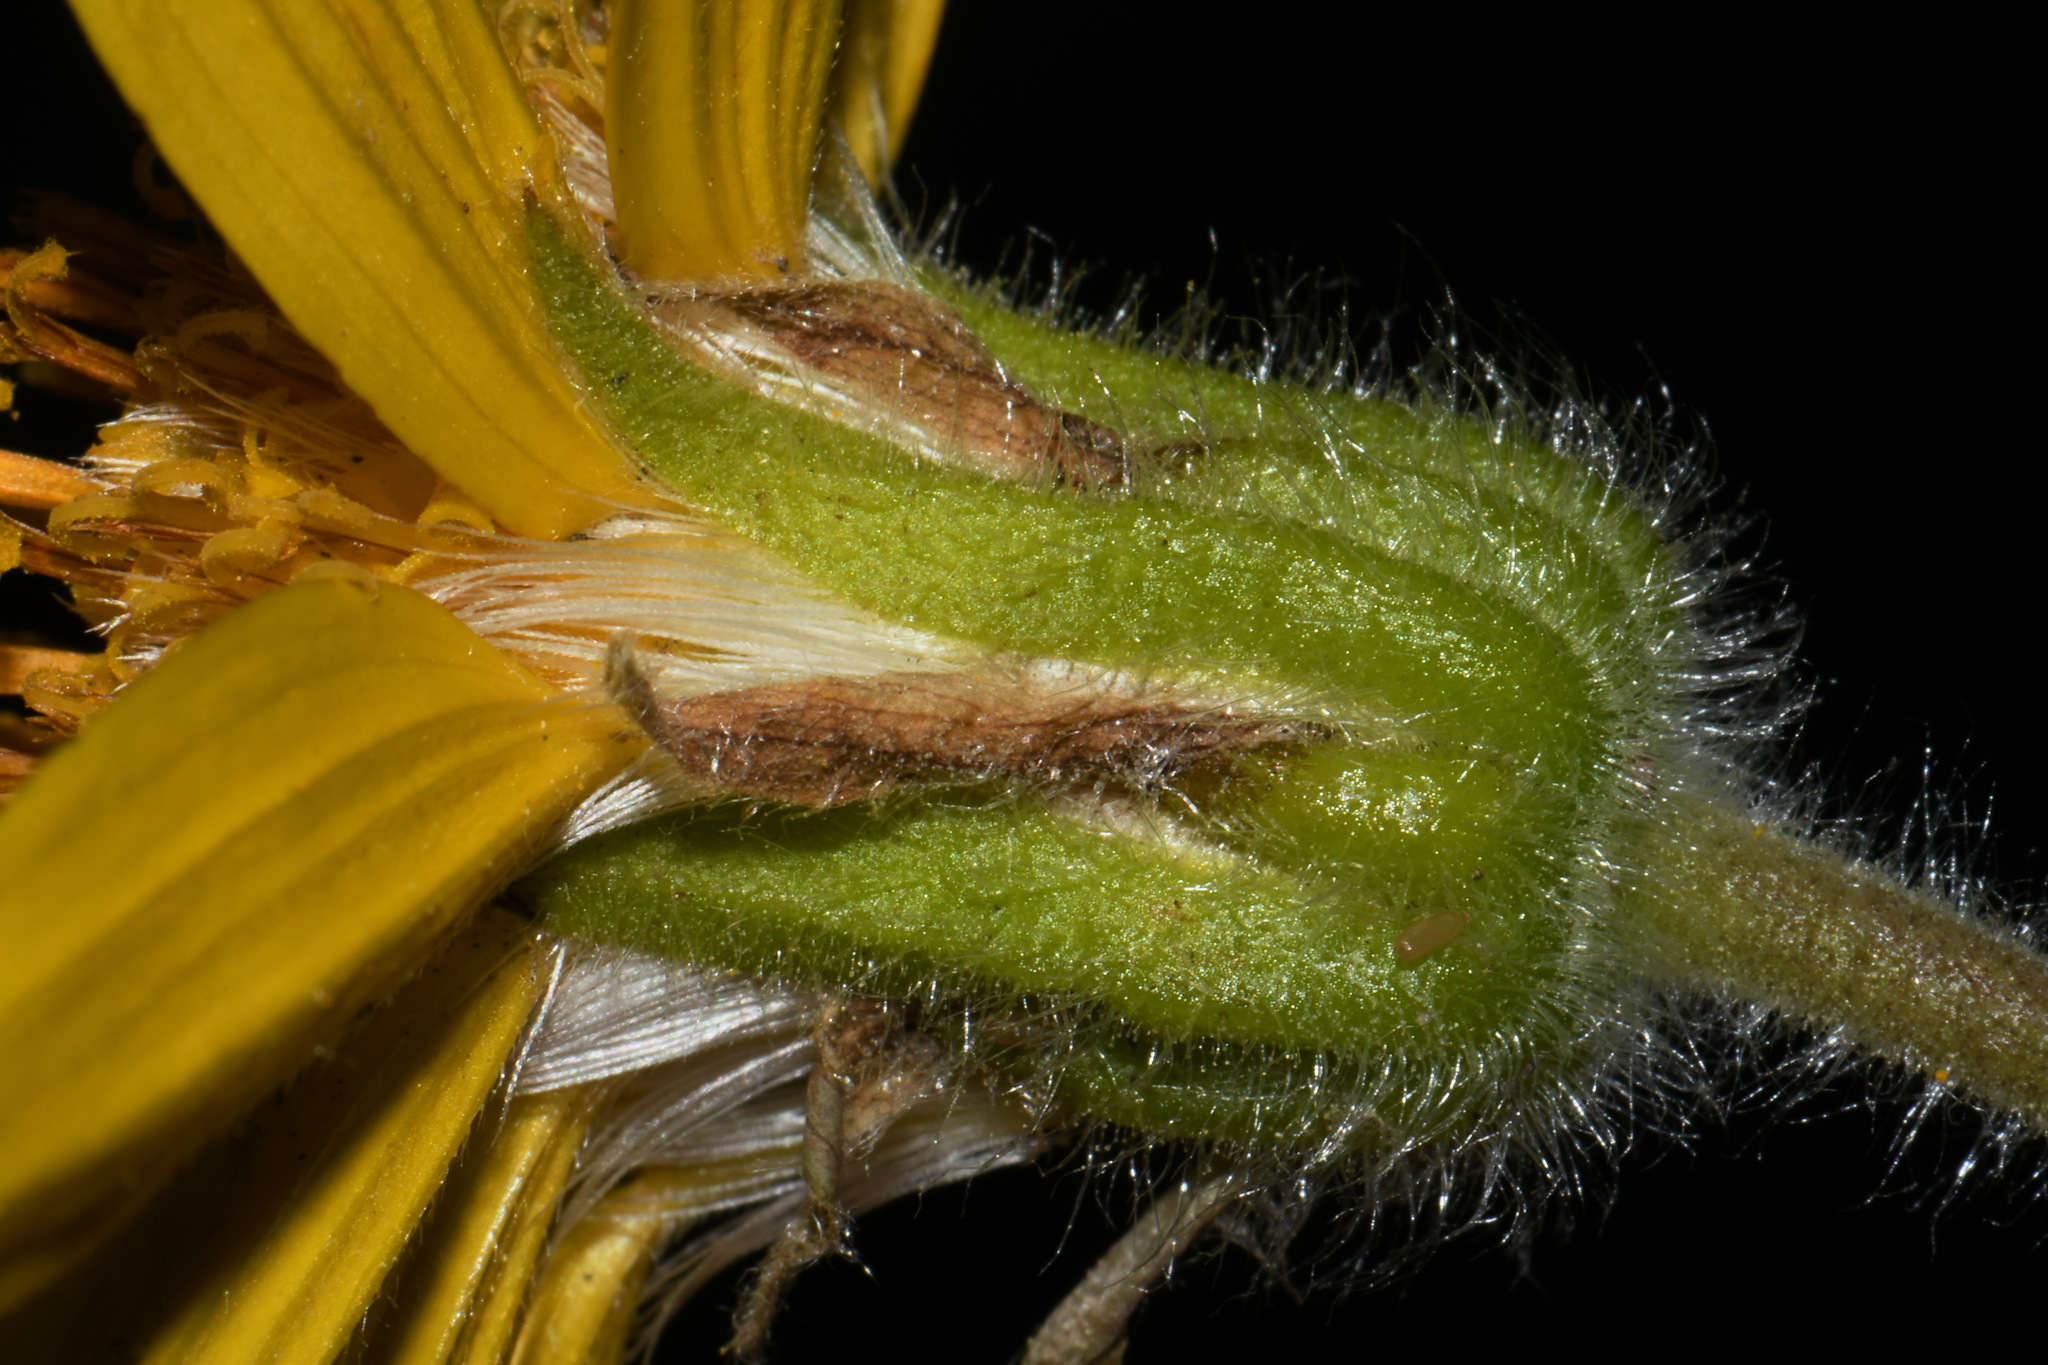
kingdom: Plantae
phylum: Tracheophyta
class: Magnoliopsida
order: Asterales
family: Asteraceae
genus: Arnica
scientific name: Arnica cordifolia
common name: Heart-leaf arnica
